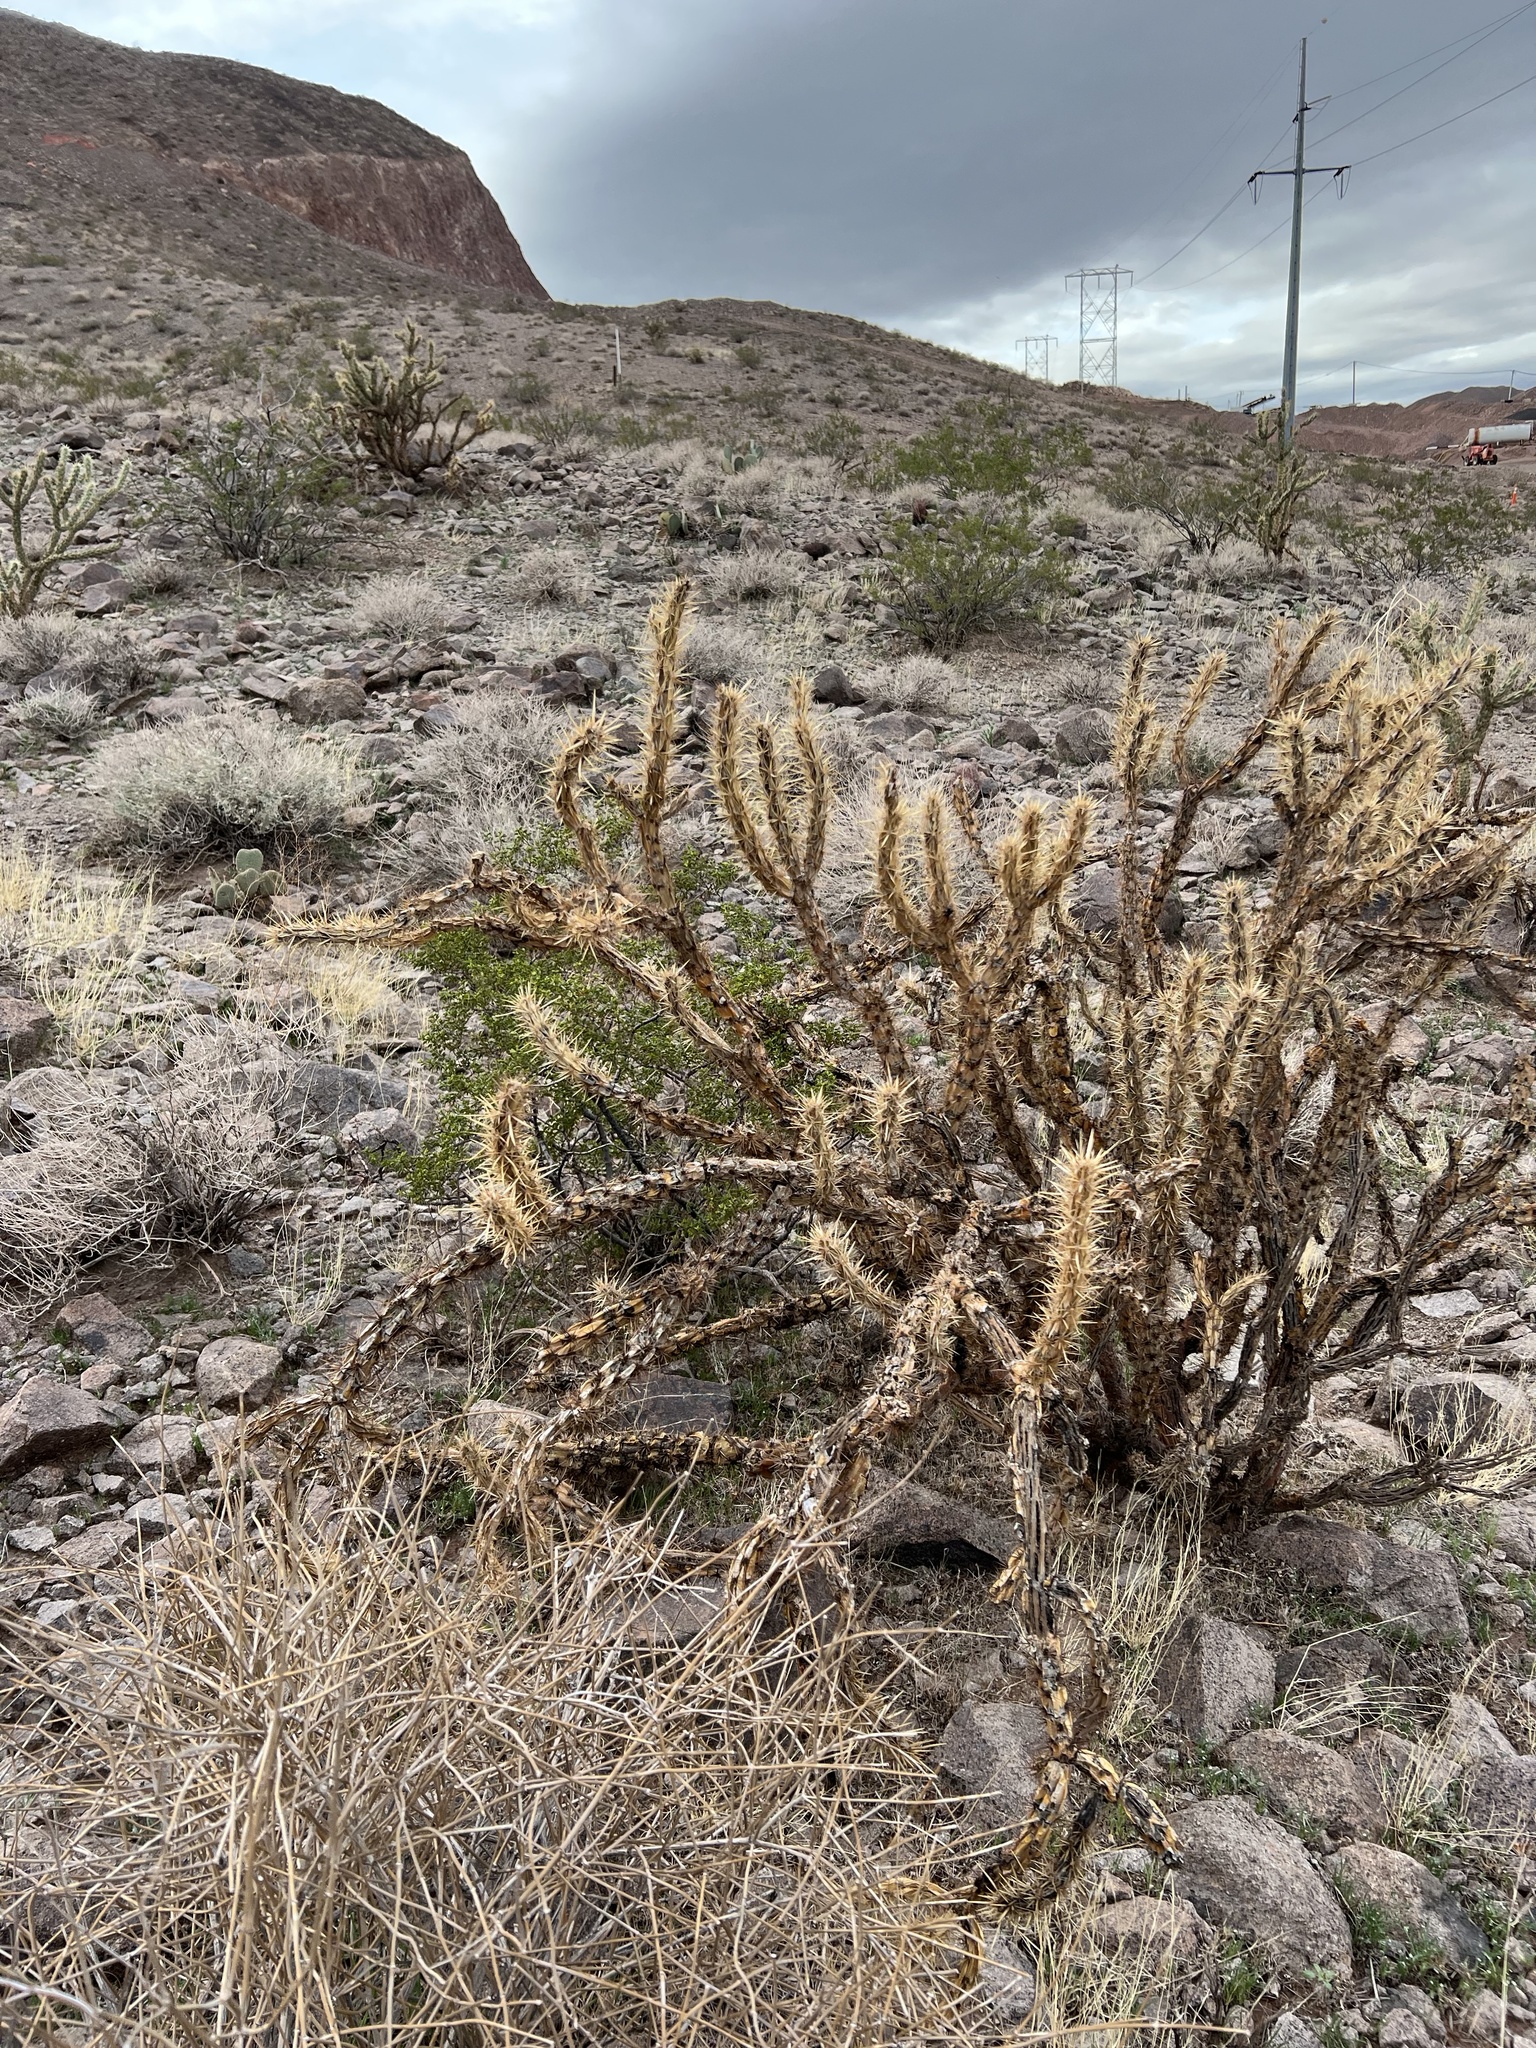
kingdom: Plantae
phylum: Tracheophyta
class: Magnoliopsida
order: Caryophyllales
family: Cactaceae
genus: Cylindropuntia
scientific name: Cylindropuntia acanthocarpa
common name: Buckhorn cholla
